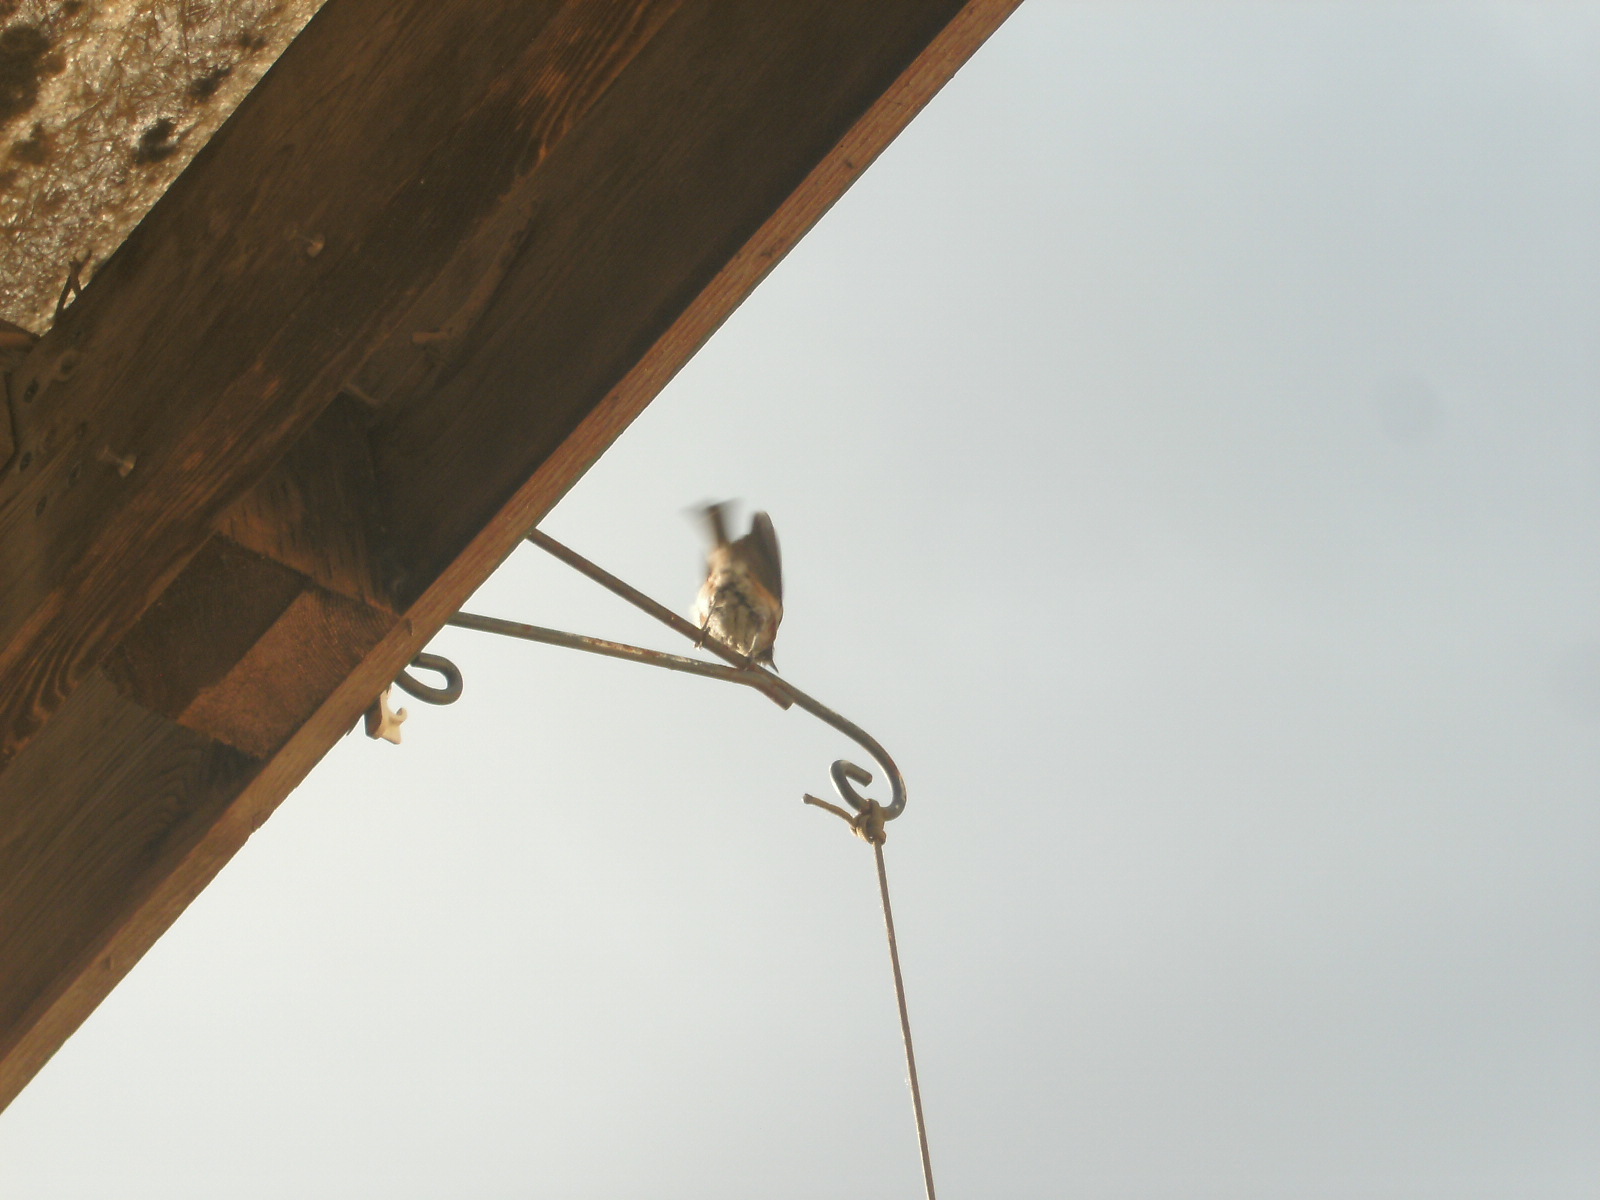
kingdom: Animalia
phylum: Chordata
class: Aves
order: Passeriformes
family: Turdidae
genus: Turdus
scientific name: Turdus migratorius
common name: American robin
